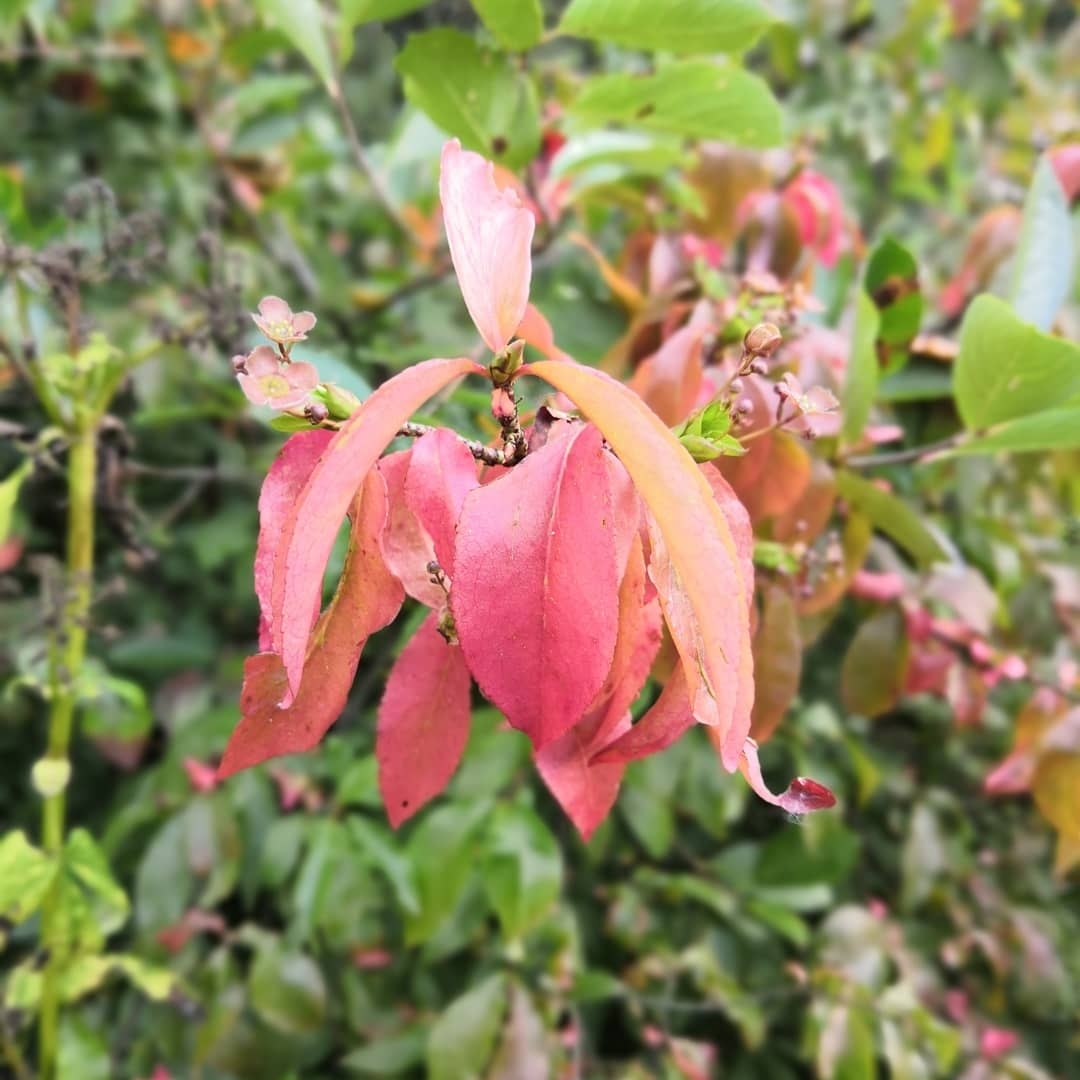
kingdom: Plantae
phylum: Tracheophyta
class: Magnoliopsida
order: Celastrales
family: Celastraceae
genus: Euonymus
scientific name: Euonymus verrucosus
